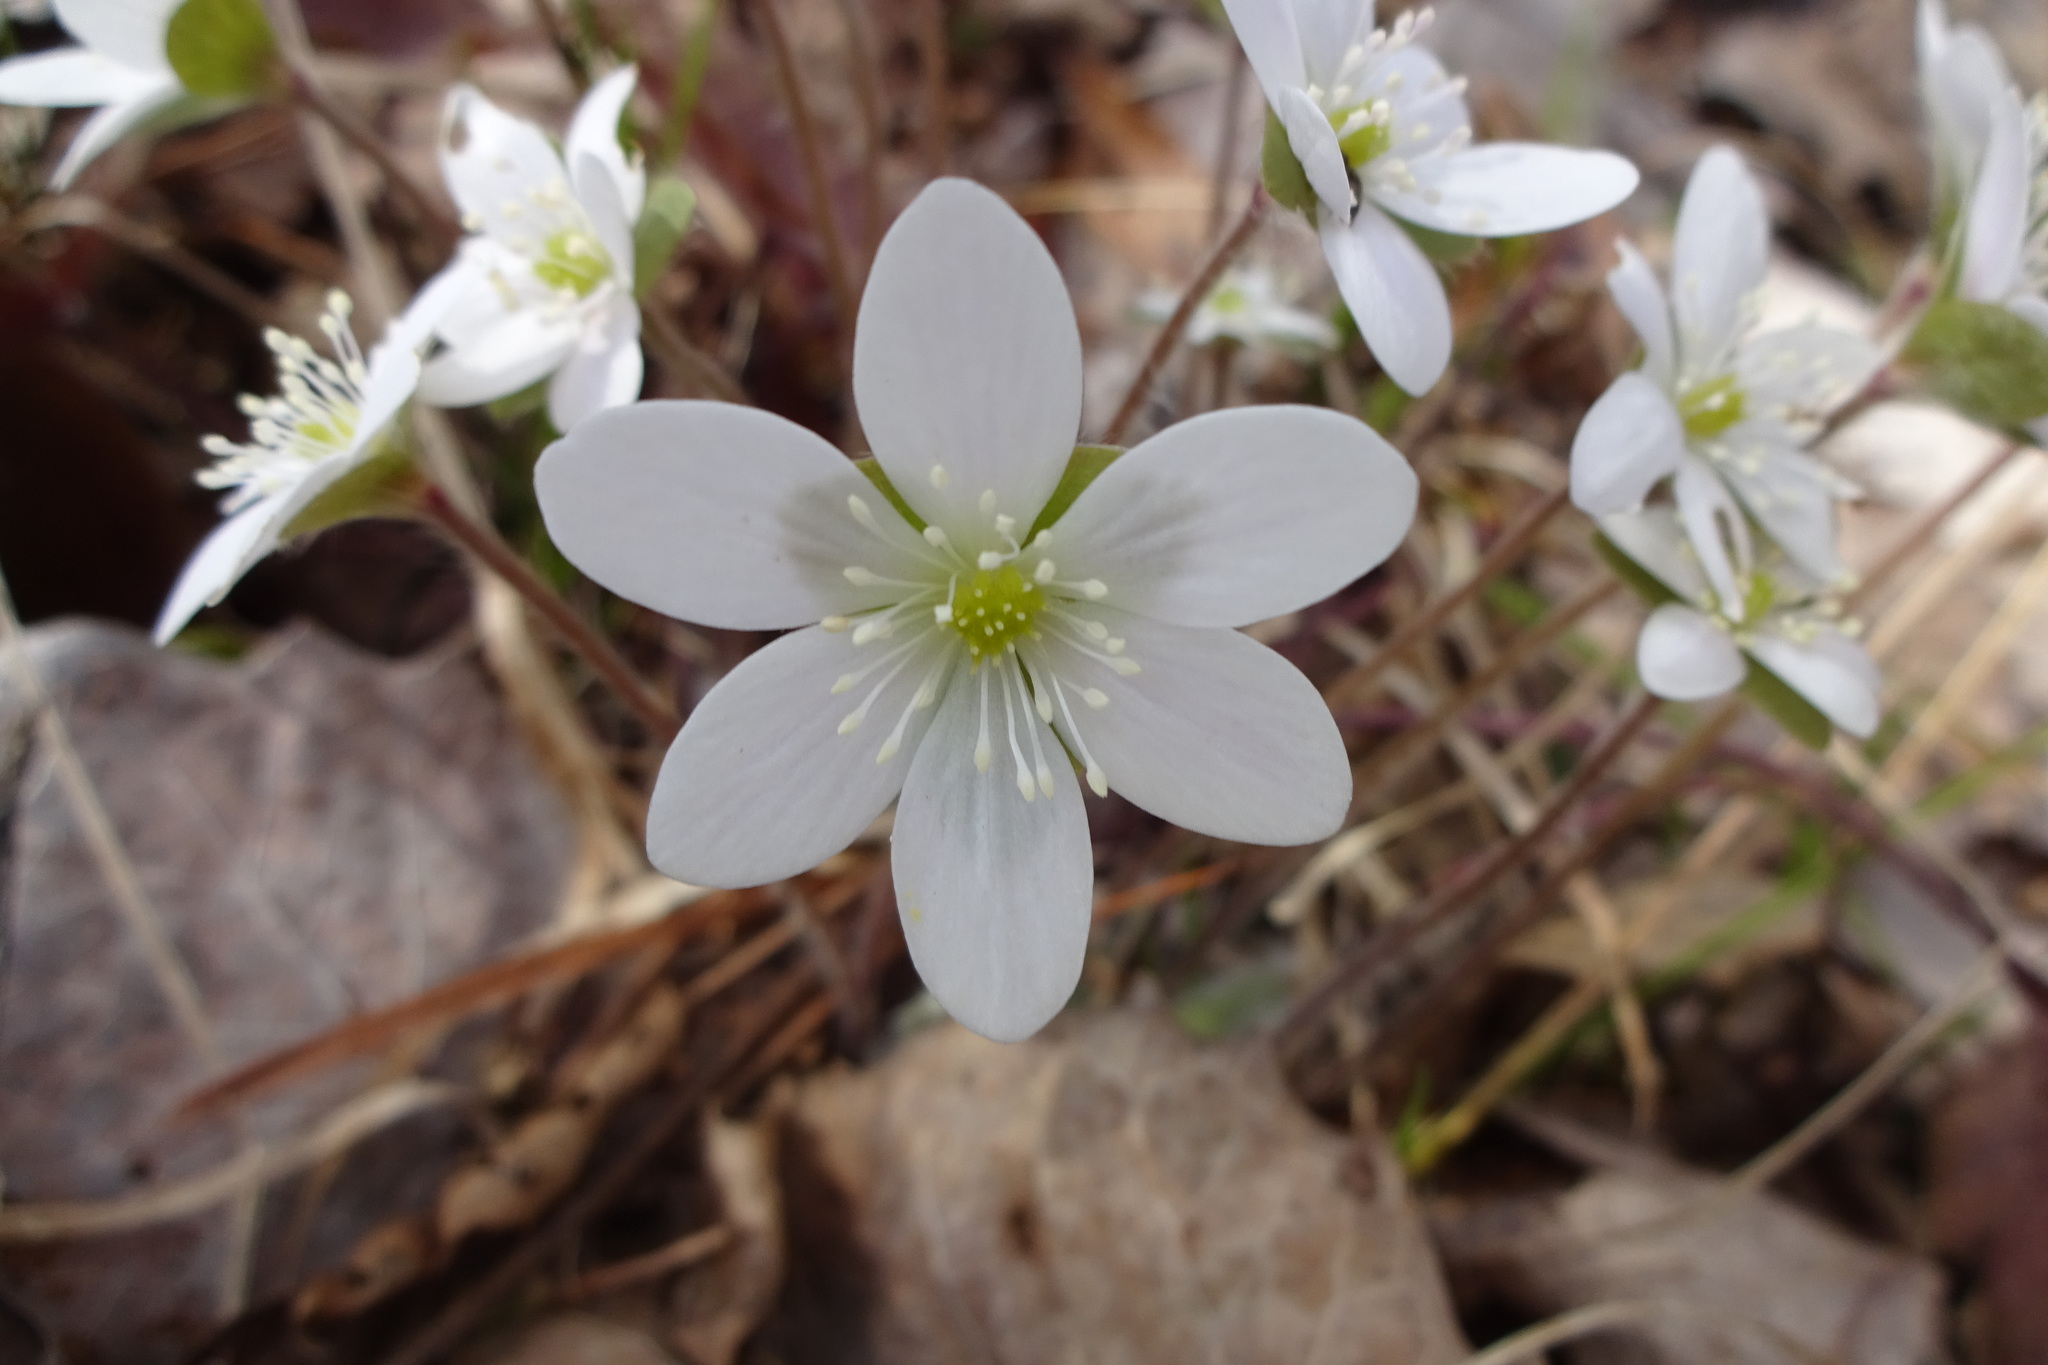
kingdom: Plantae
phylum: Tracheophyta
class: Magnoliopsida
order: Ranunculales
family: Ranunculaceae
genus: Hepatica
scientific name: Hepatica americana
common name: American hepatica
